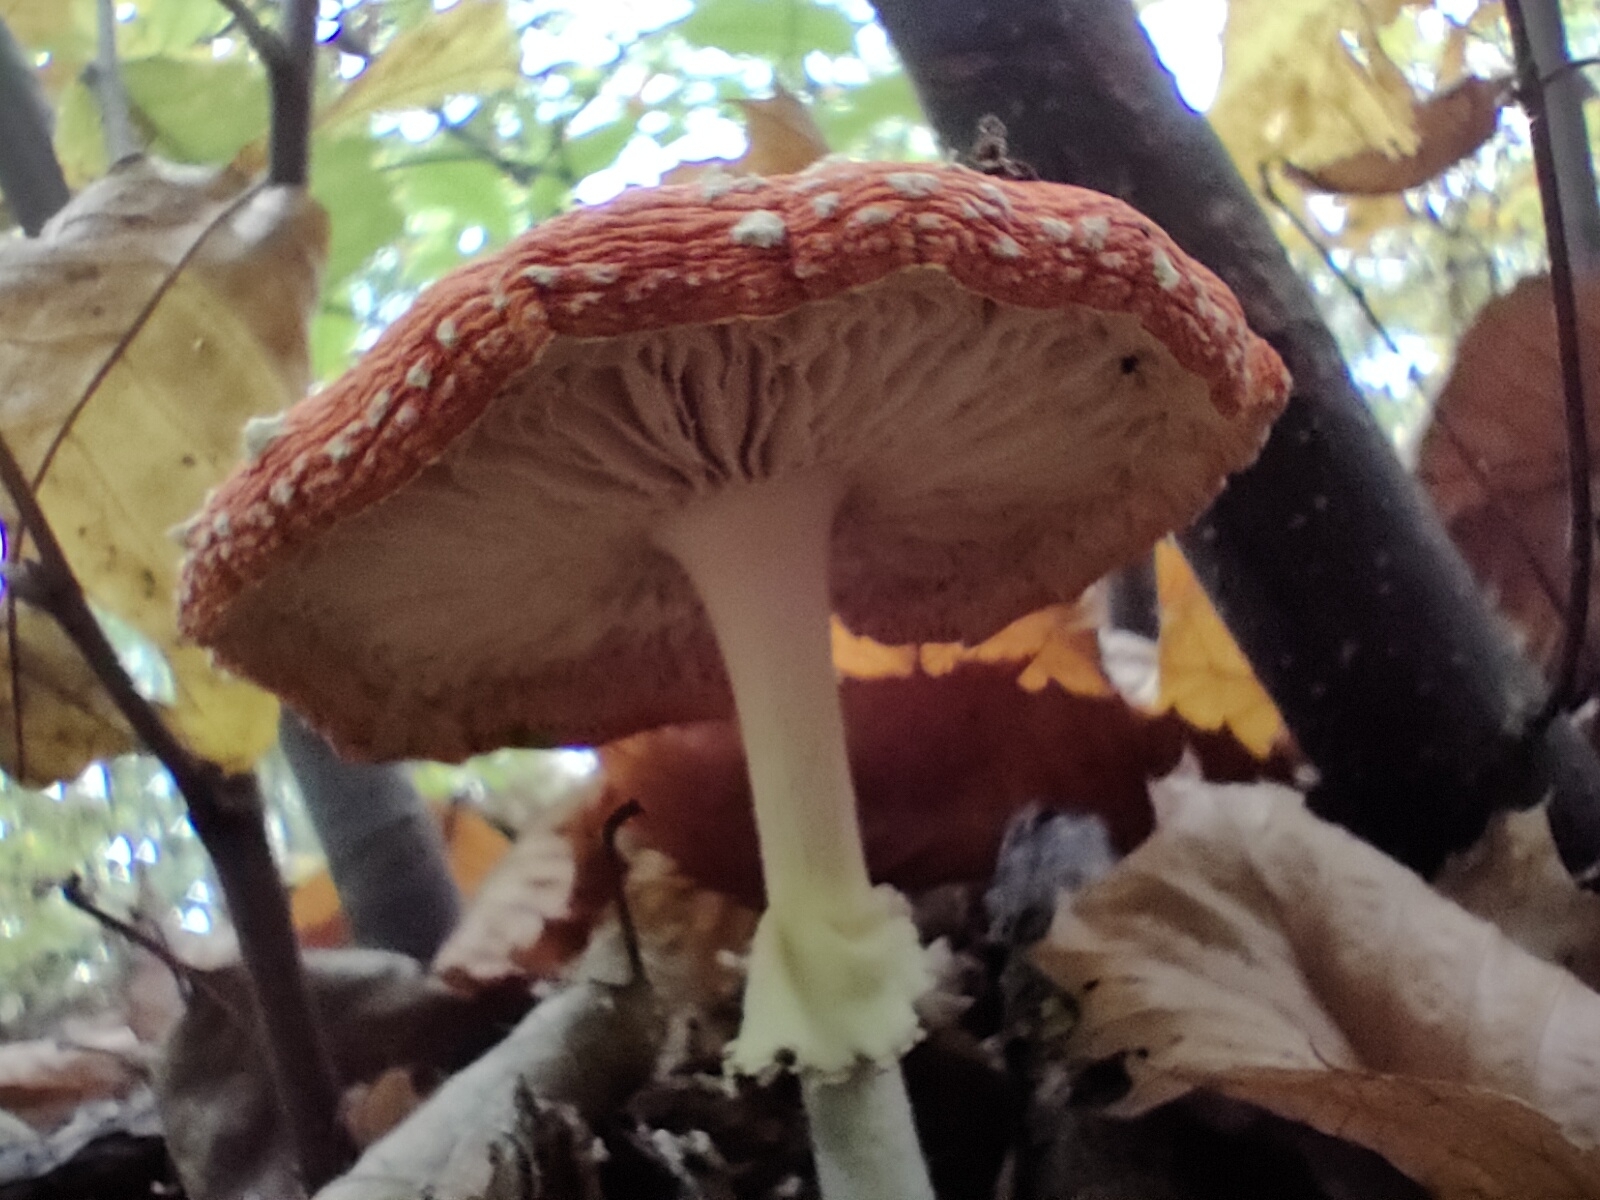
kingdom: Fungi
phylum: Basidiomycota
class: Agaricomycetes
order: Agaricales
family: Amanitaceae
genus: Amanita
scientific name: Amanita muscaria
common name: Fly agaric
